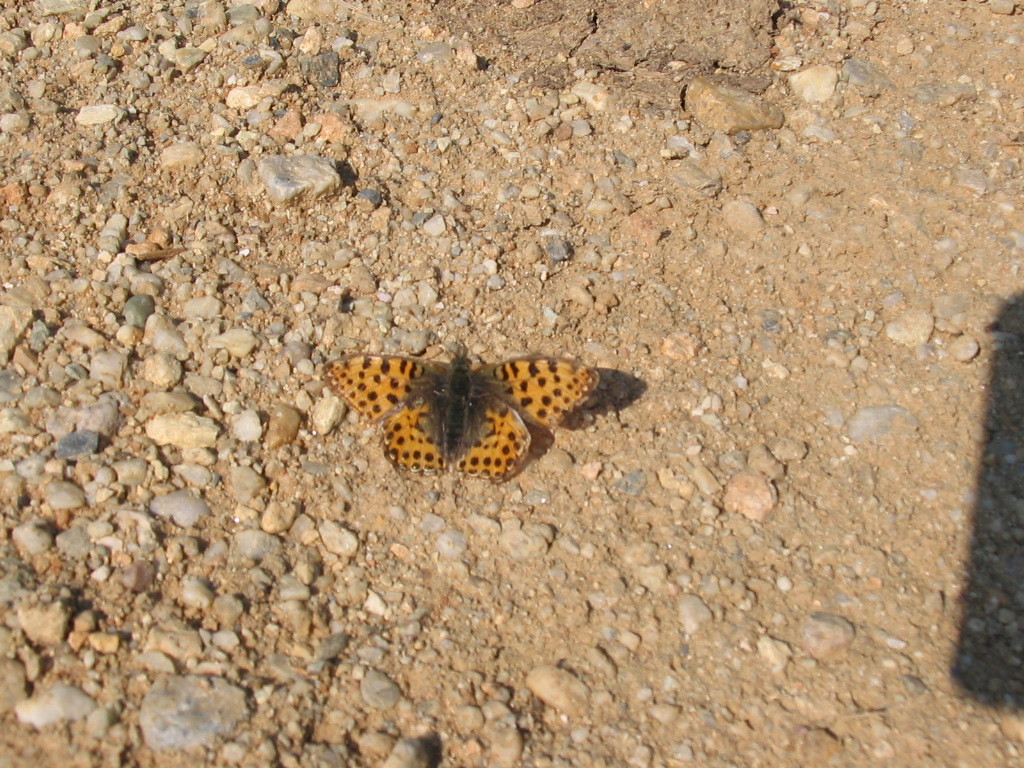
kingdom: Animalia
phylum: Arthropoda
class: Insecta
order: Lepidoptera
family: Nymphalidae
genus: Issoria
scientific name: Issoria lathonia
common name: Queen of spain fritillary
